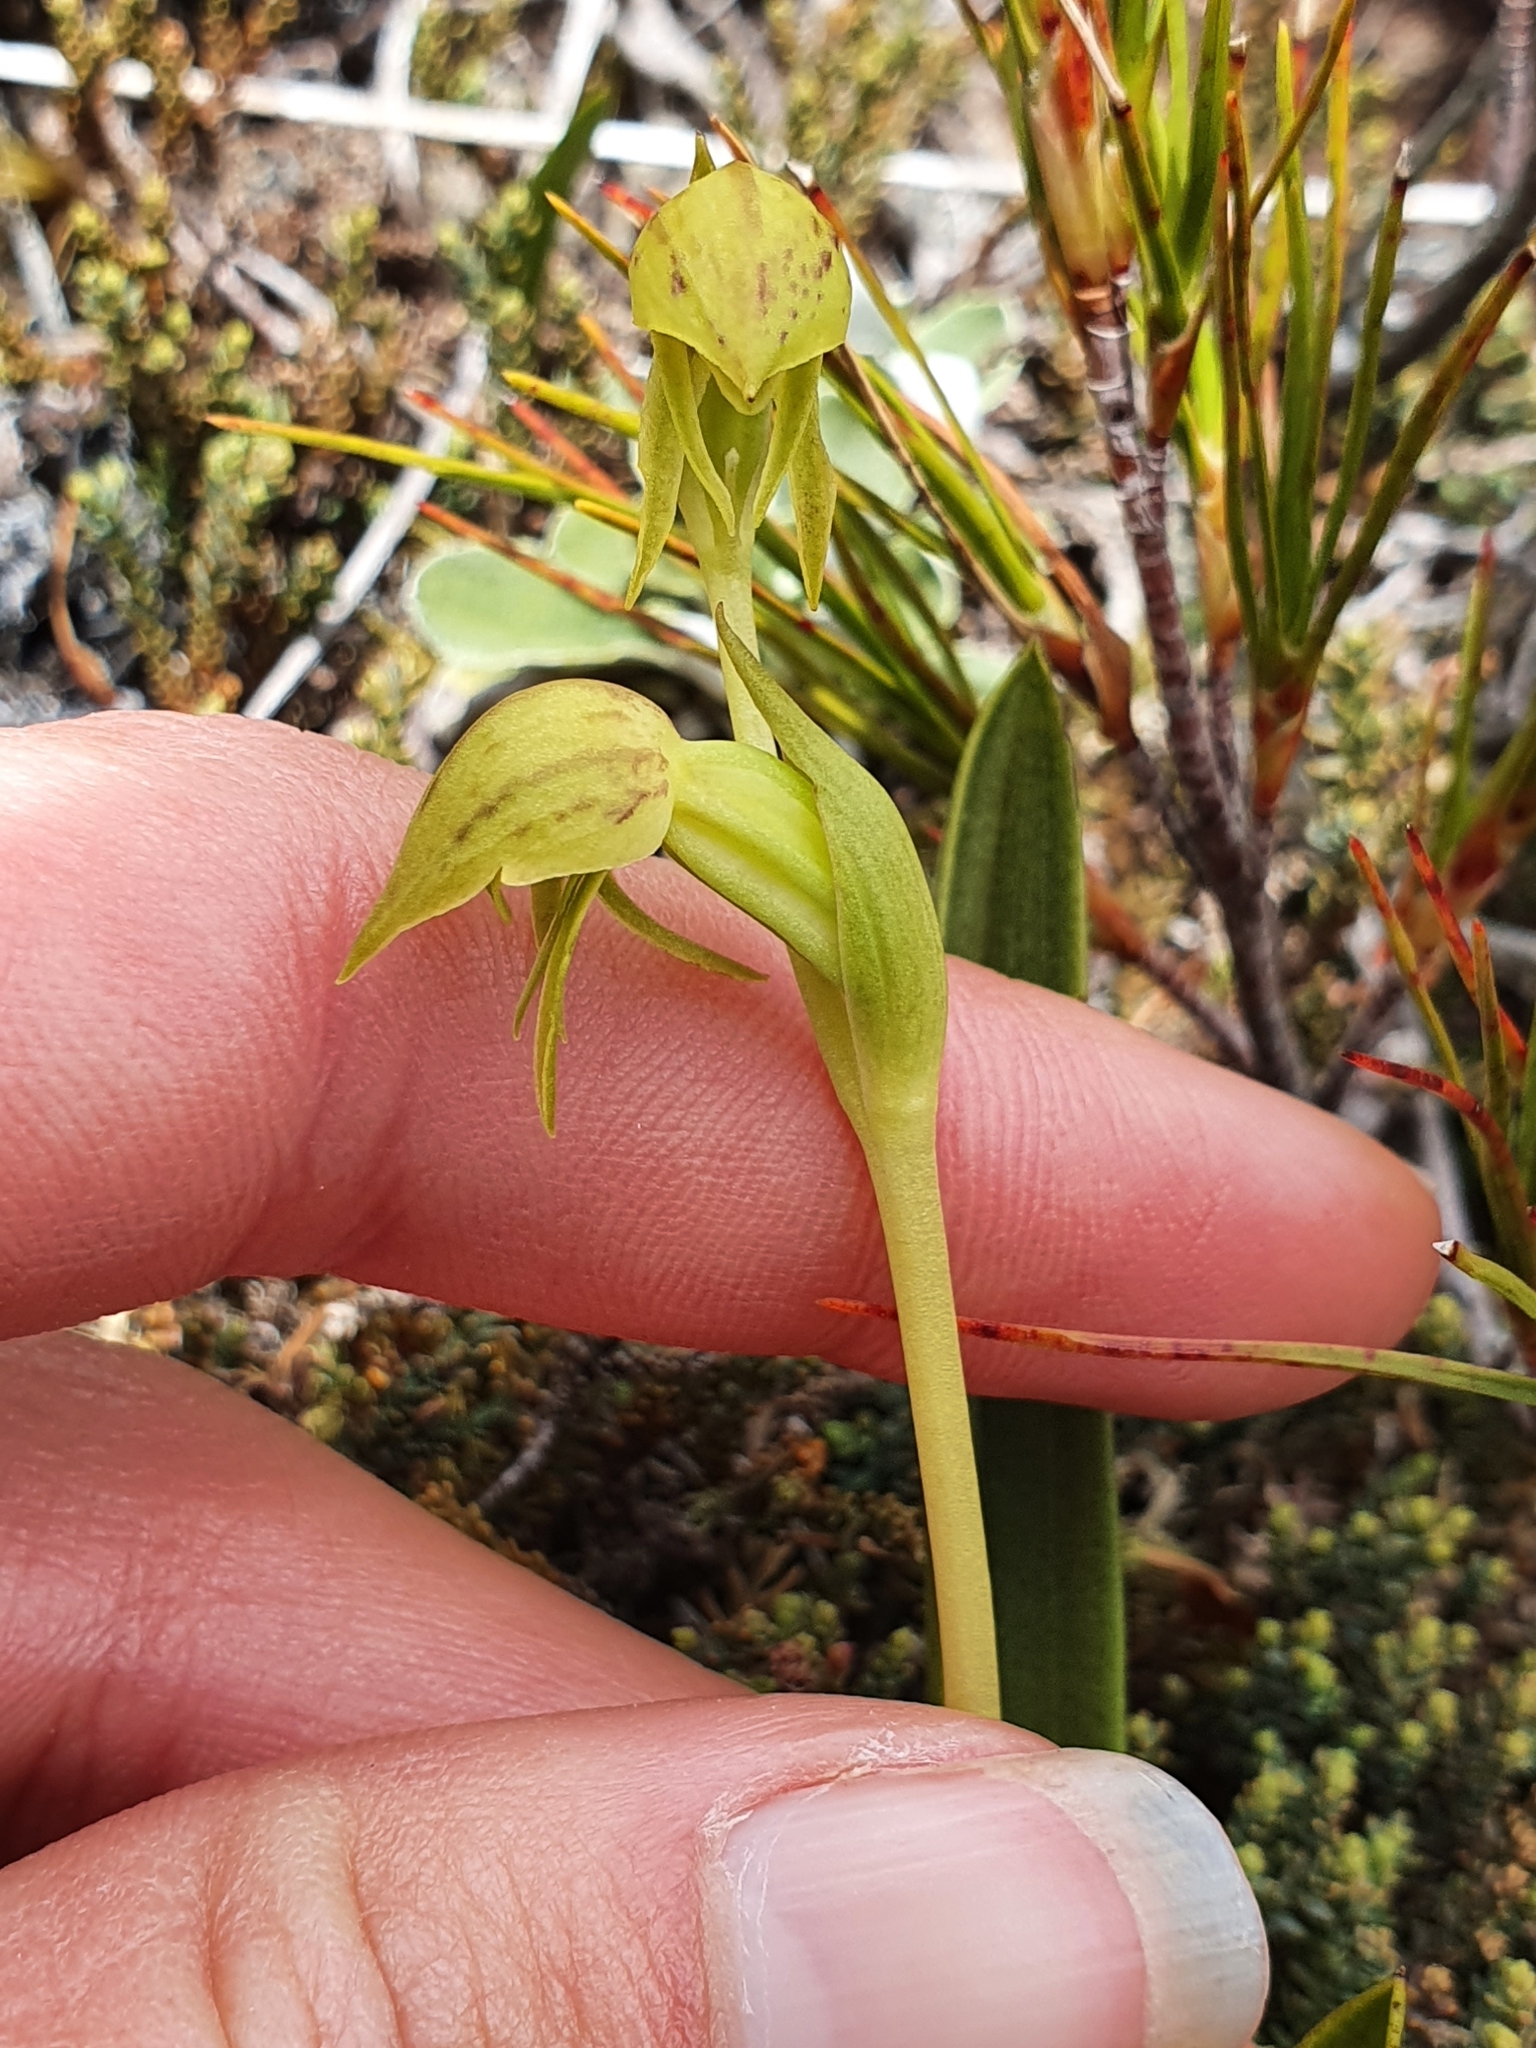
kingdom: Plantae
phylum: Tracheophyta
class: Liliopsida
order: Asparagales
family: Orchidaceae
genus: Waireia
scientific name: Waireia stenopetala
